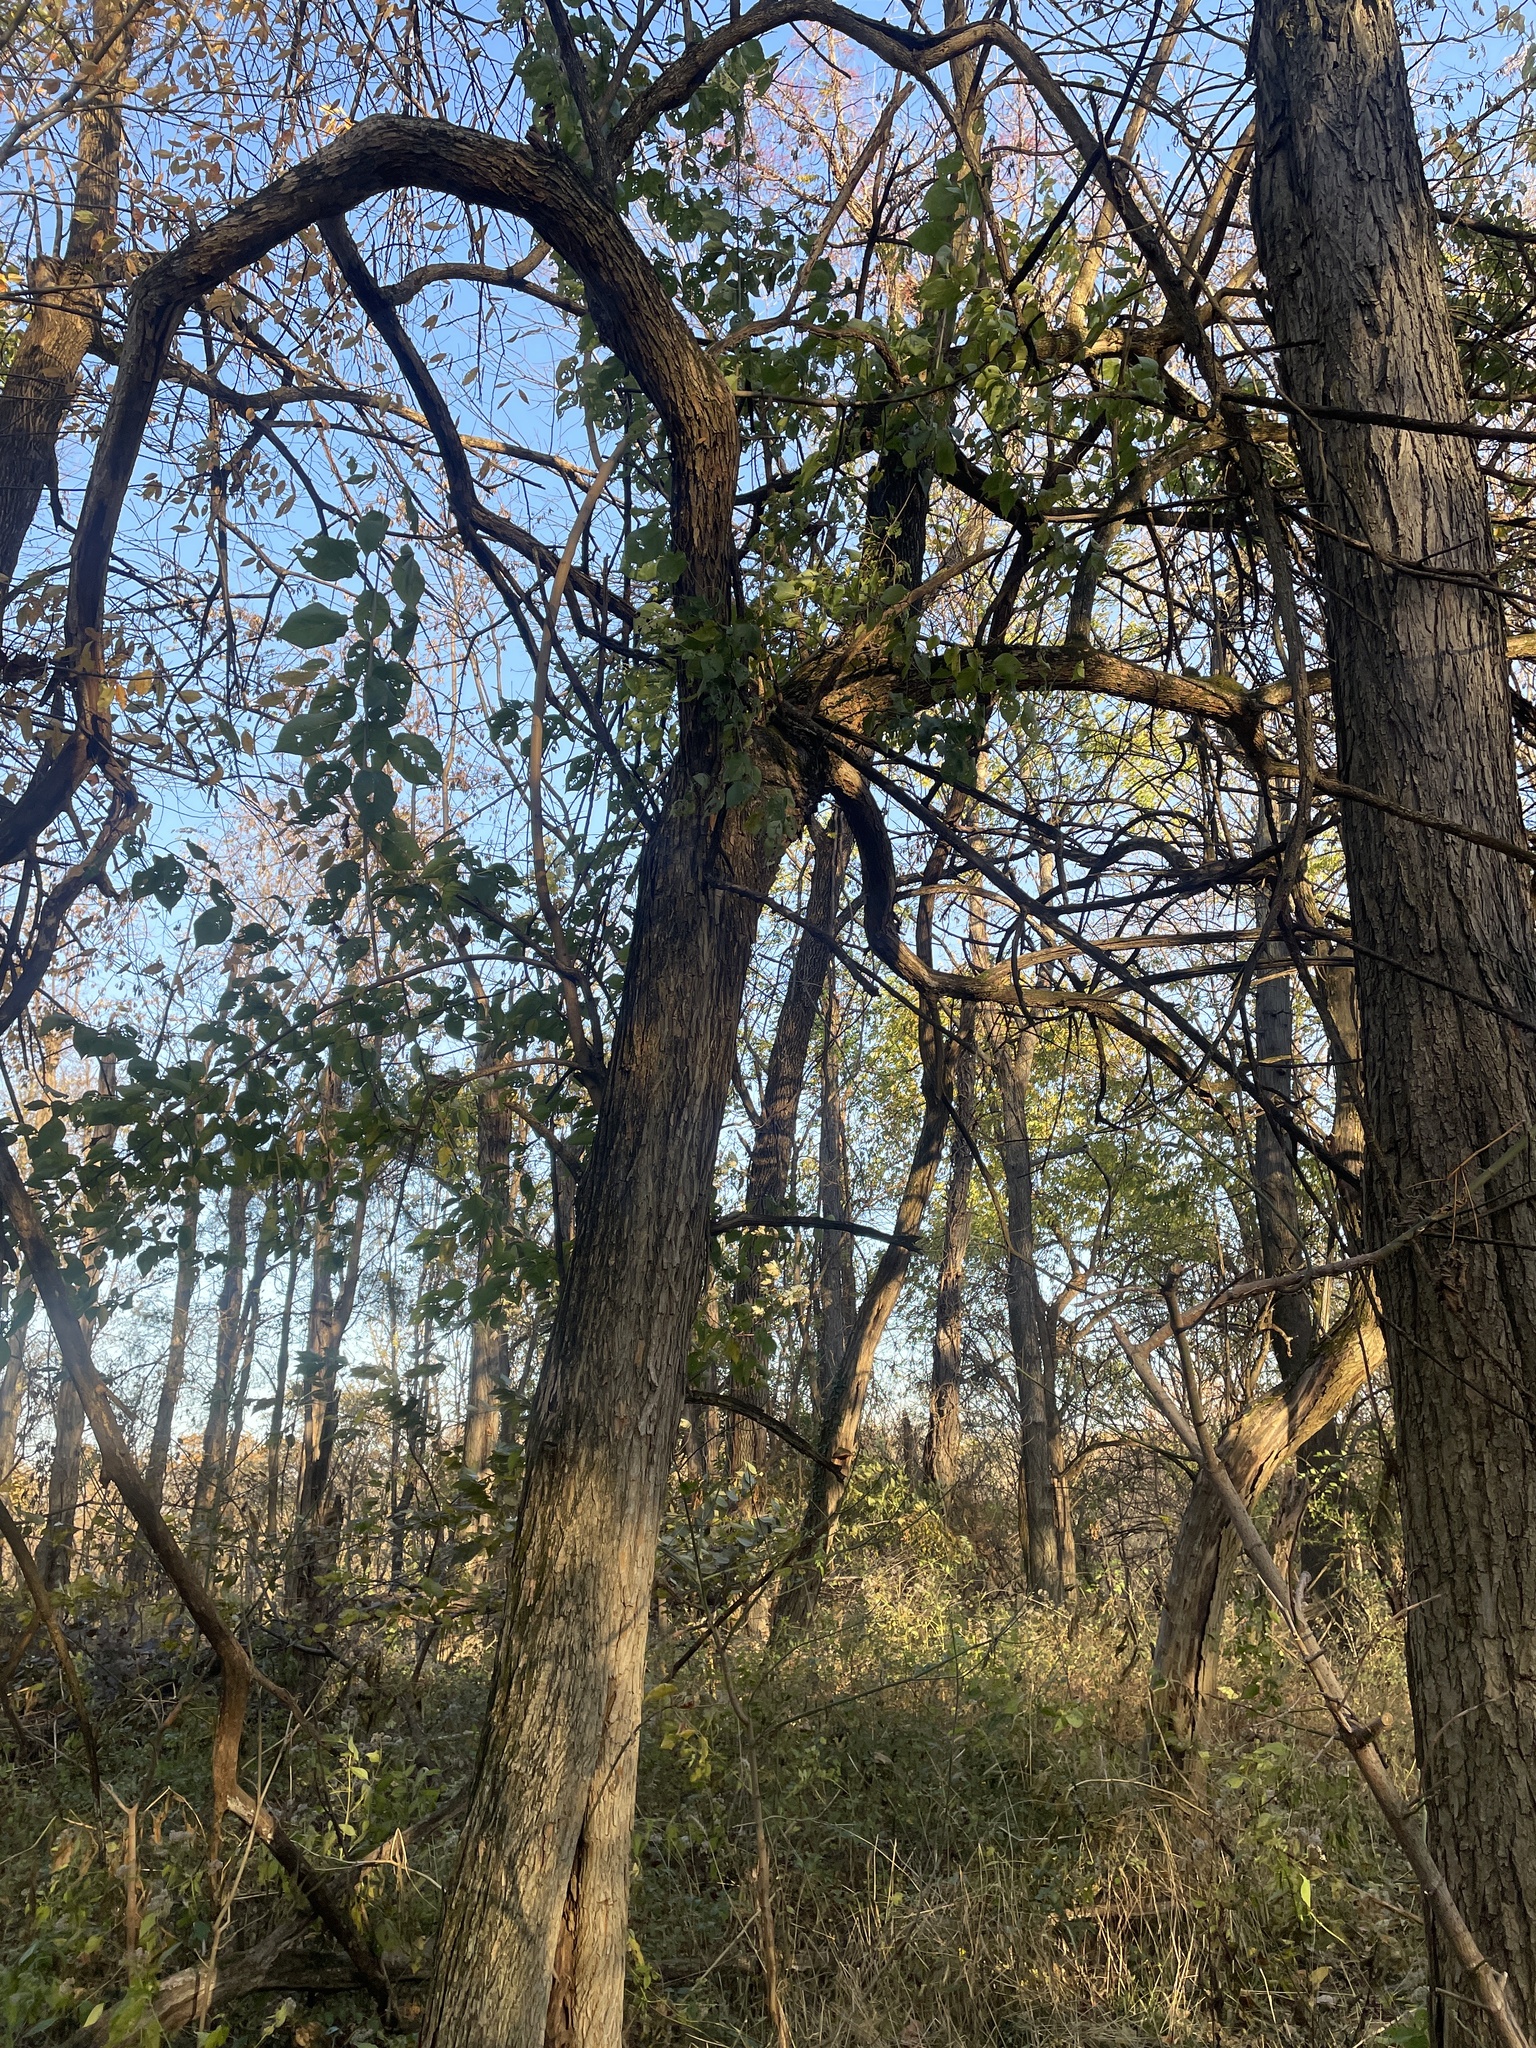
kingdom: Plantae
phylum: Tracheophyta
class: Magnoliopsida
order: Rosales
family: Moraceae
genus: Maclura
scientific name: Maclura pomifera
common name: Osage-orange
